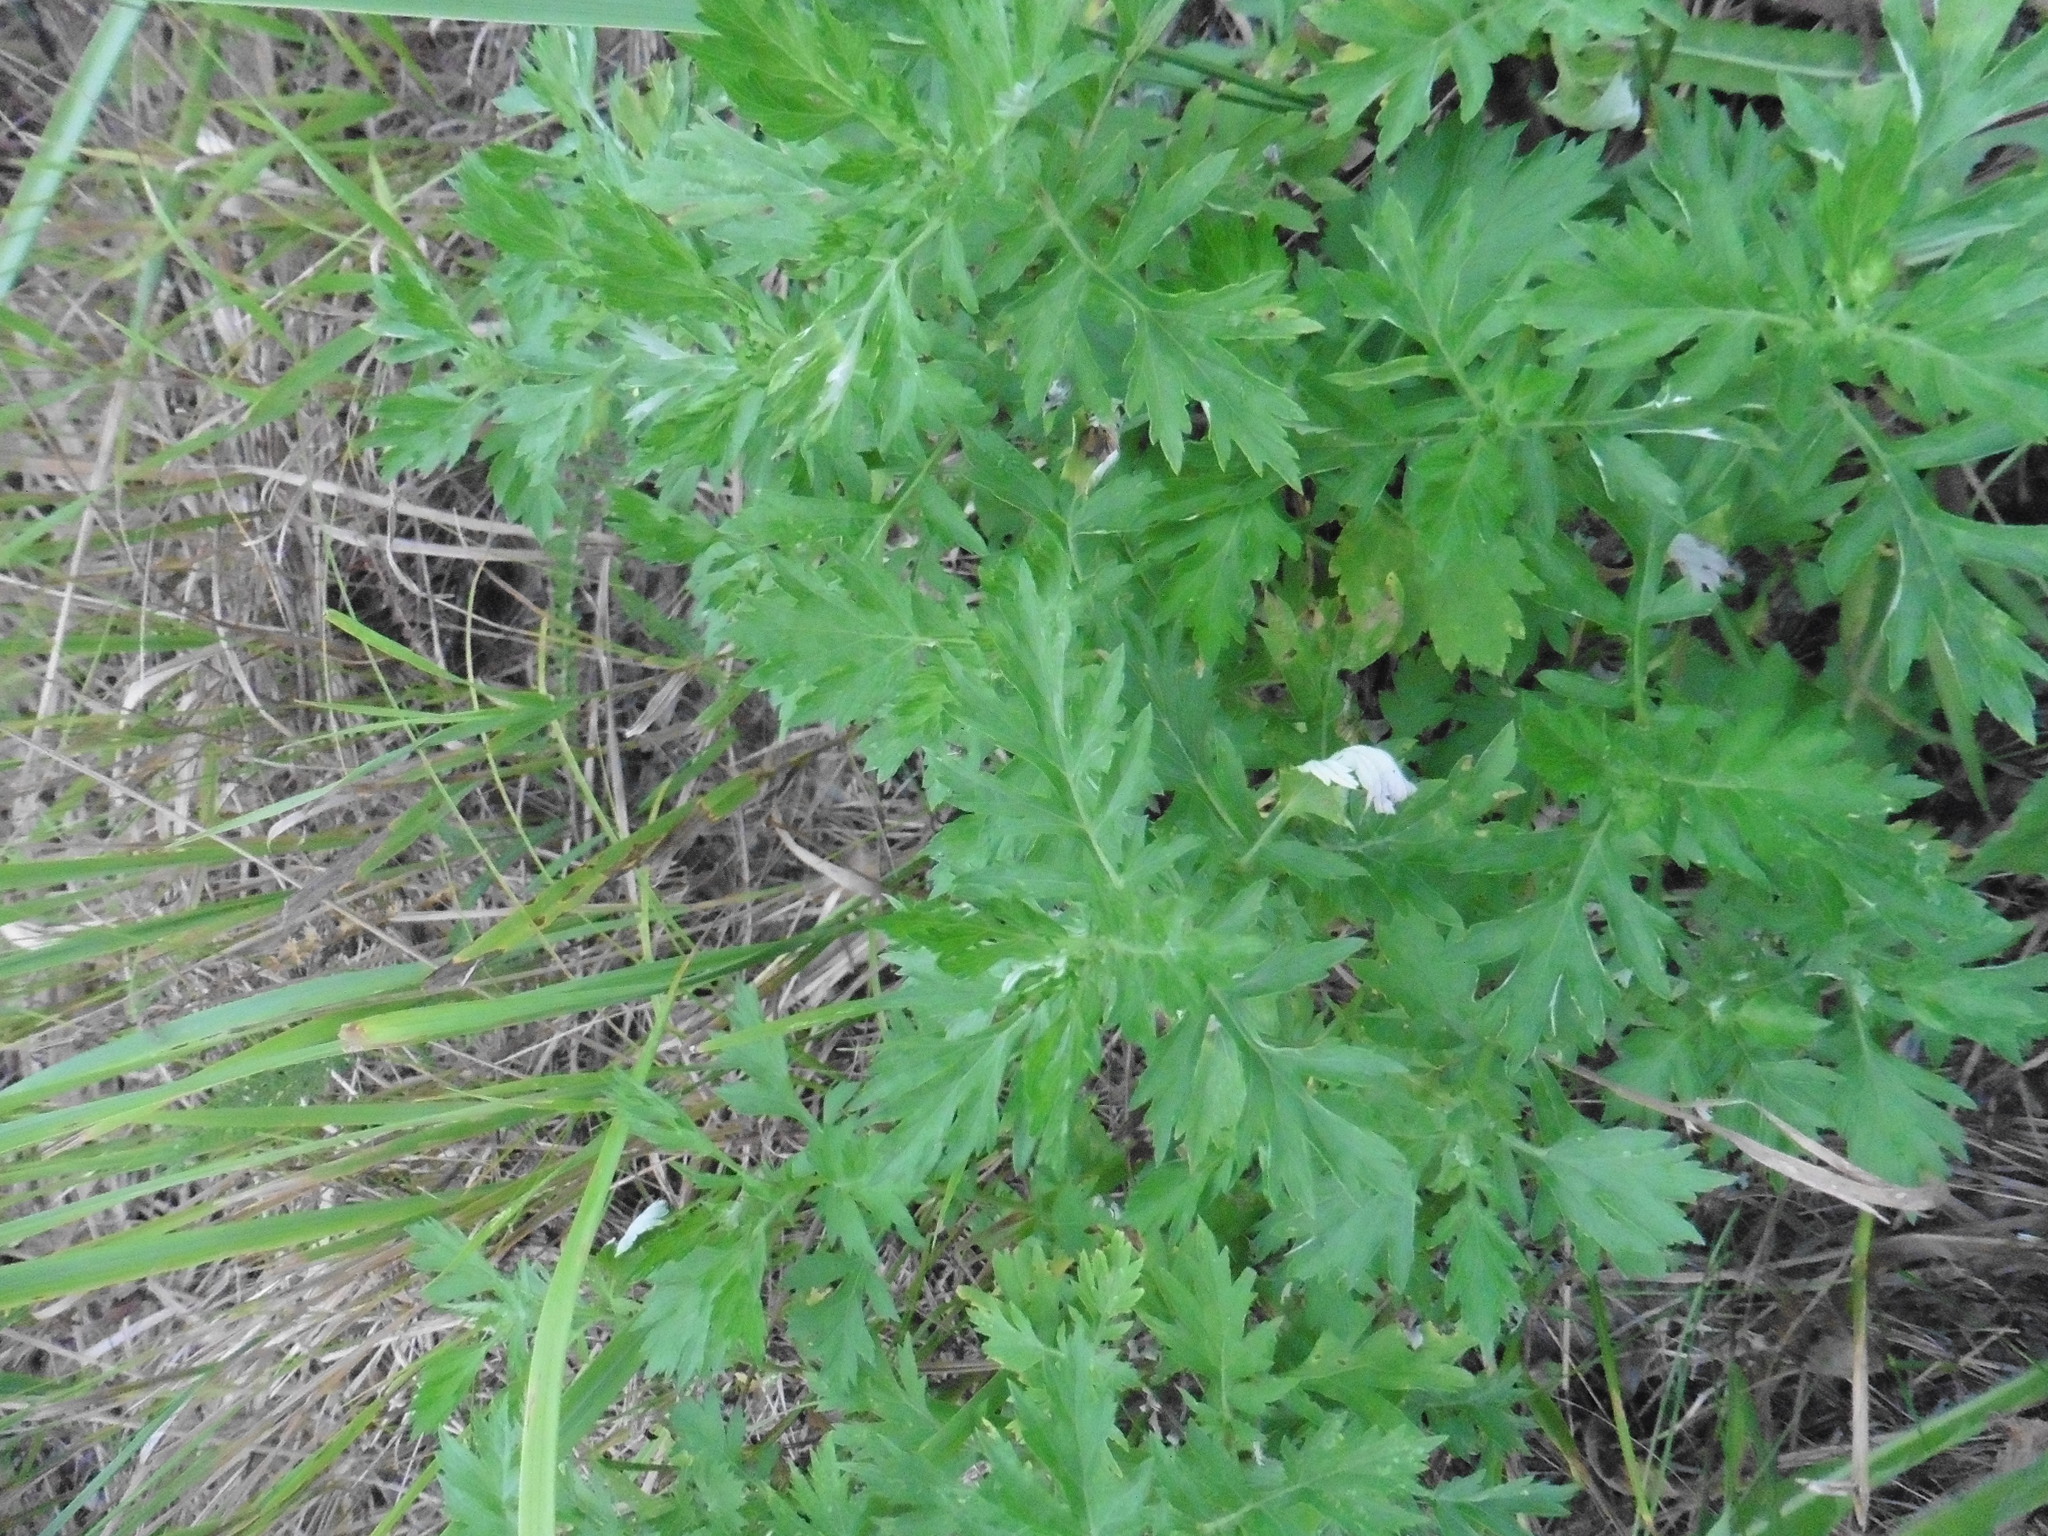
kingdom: Plantae
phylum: Tracheophyta
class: Magnoliopsida
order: Asterales
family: Asteraceae
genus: Artemisia
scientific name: Artemisia vulgaris
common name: Mugwort
